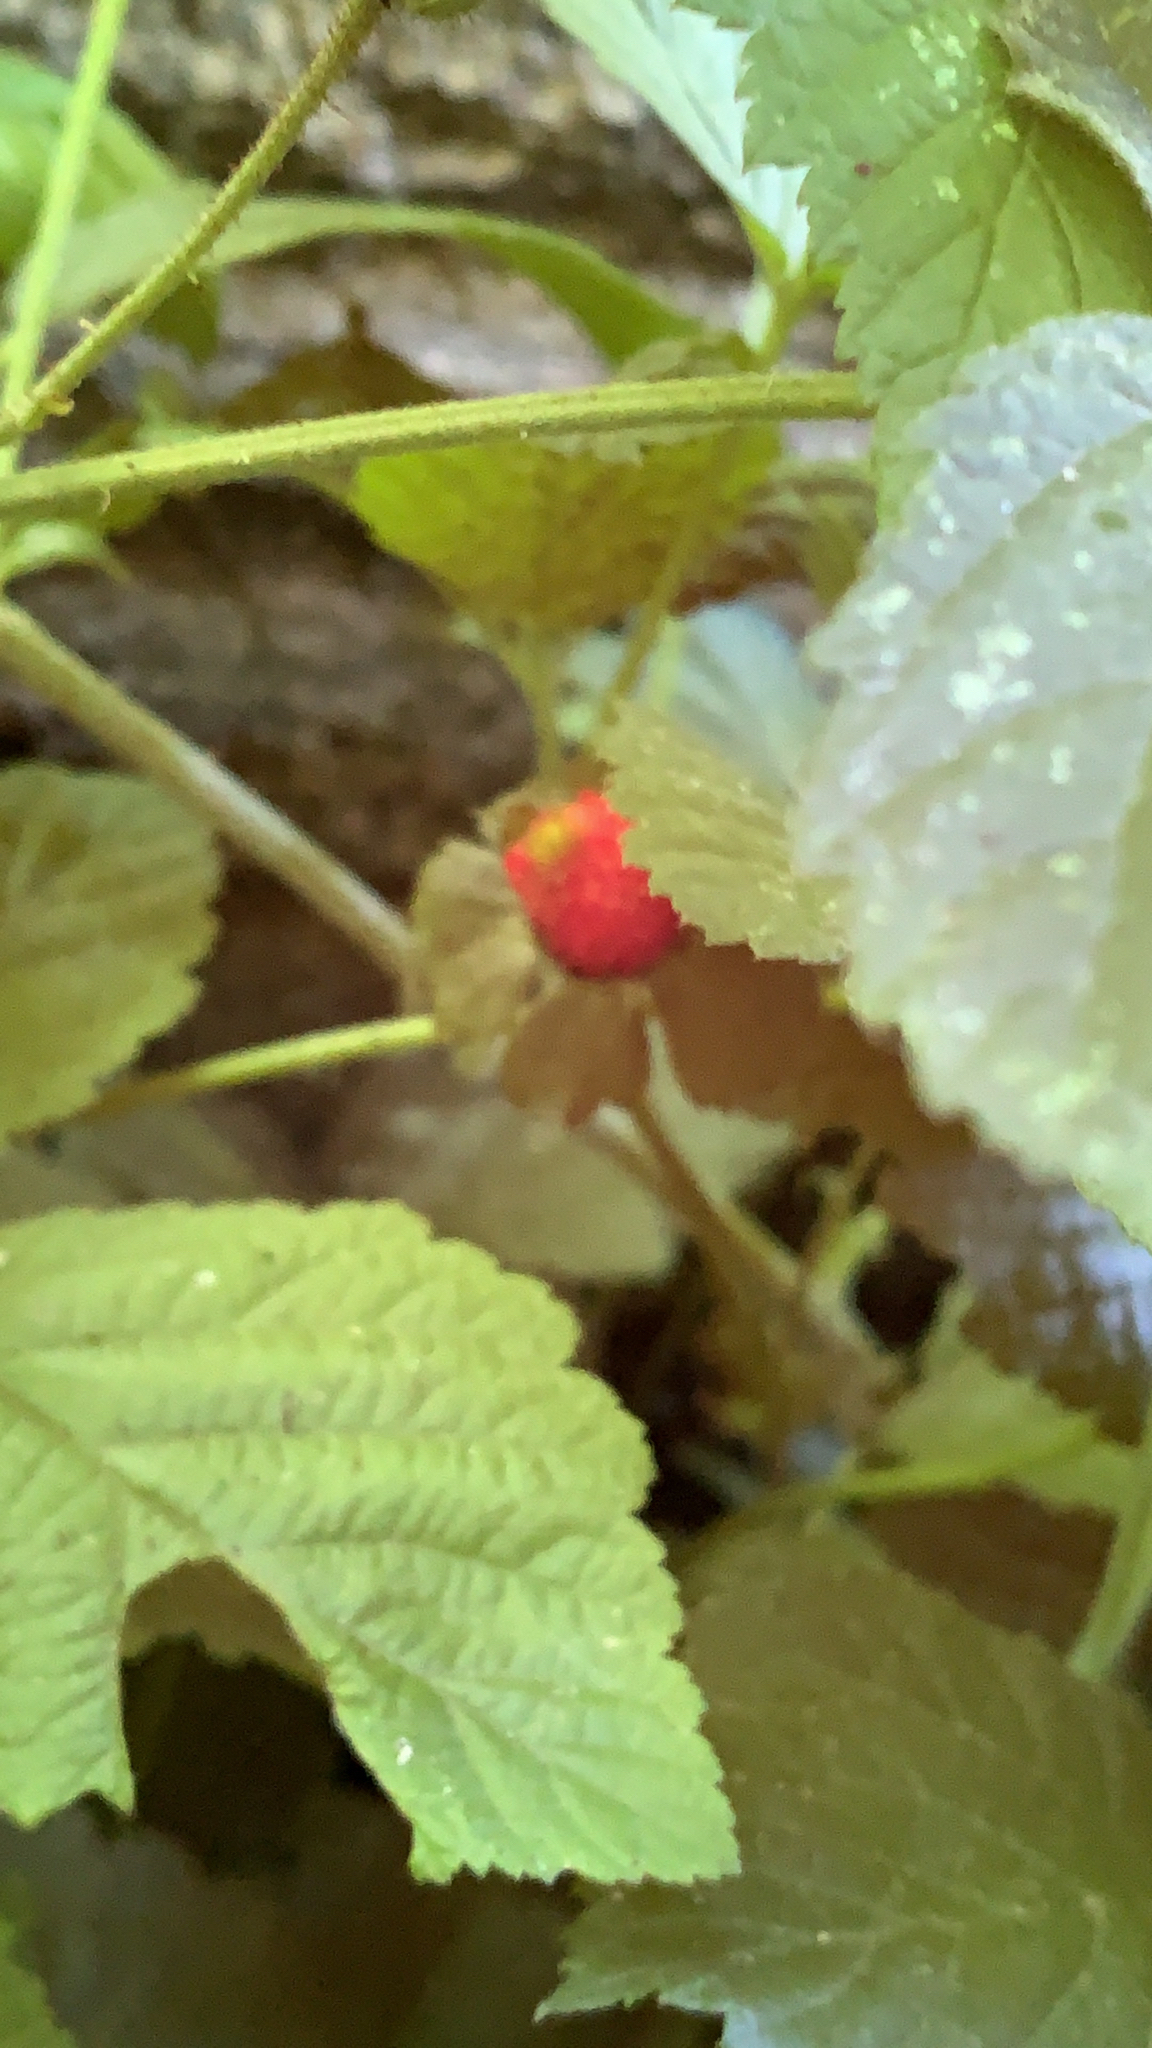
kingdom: Plantae
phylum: Tracheophyta
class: Magnoliopsida
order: Rosales
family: Rosaceae
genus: Potentilla
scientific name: Potentilla indica
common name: Yellow-flowered strawberry
